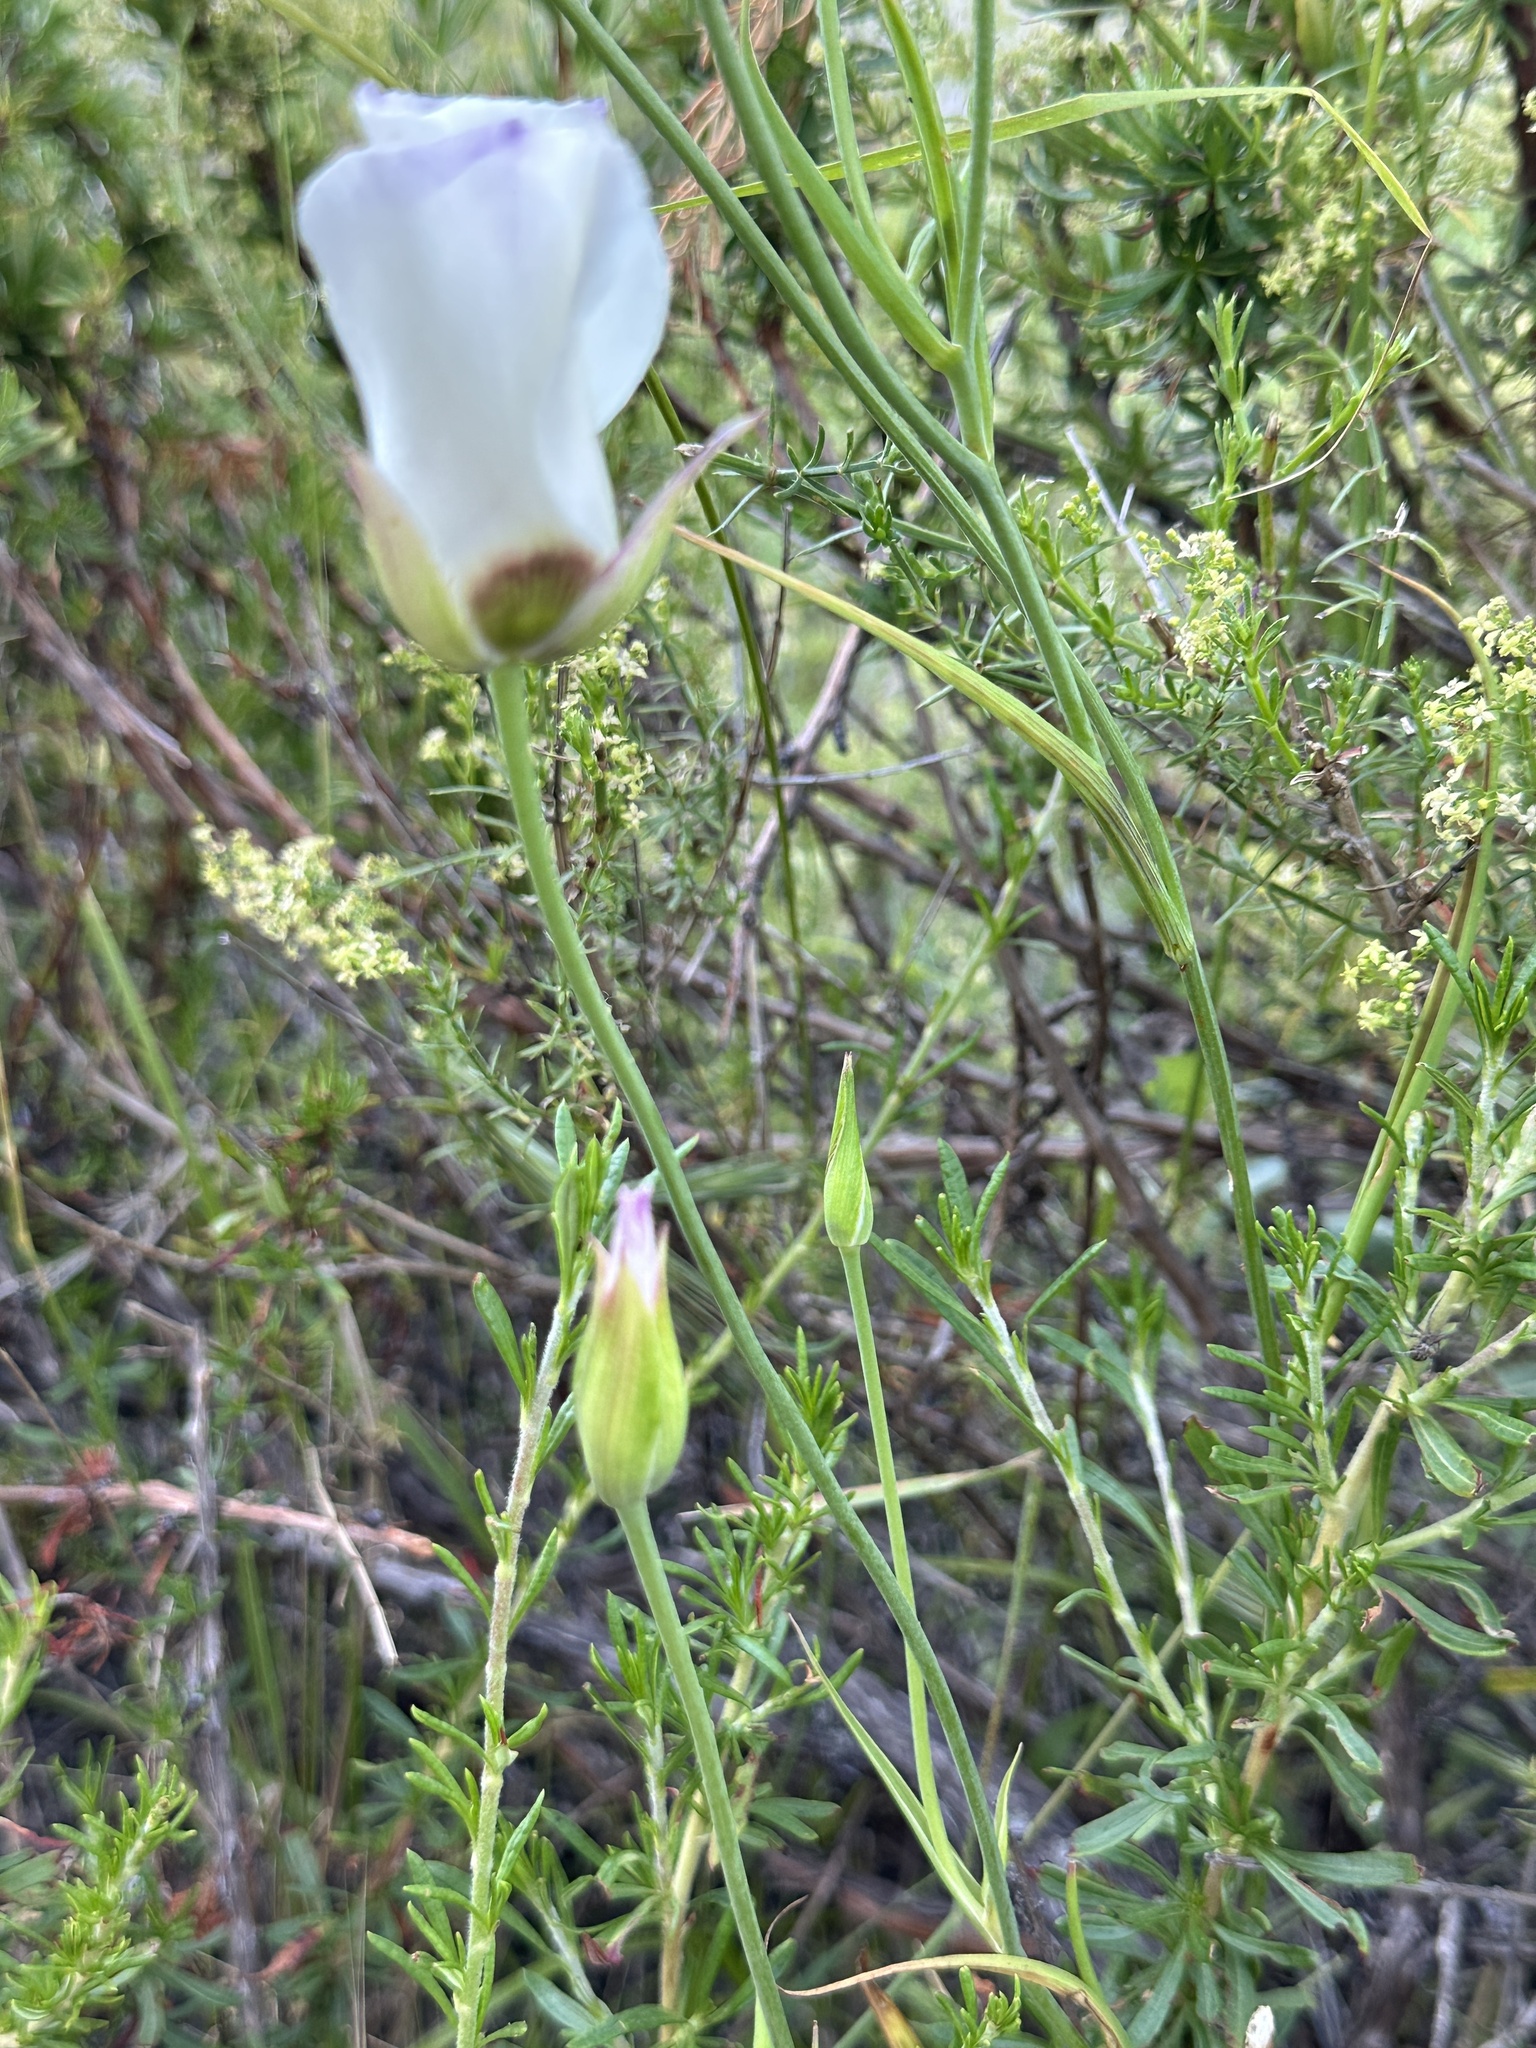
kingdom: Plantae
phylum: Tracheophyta
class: Liliopsida
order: Liliales
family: Liliaceae
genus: Calochortus
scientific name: Calochortus catalinae
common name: Catalina mariposa-lily
